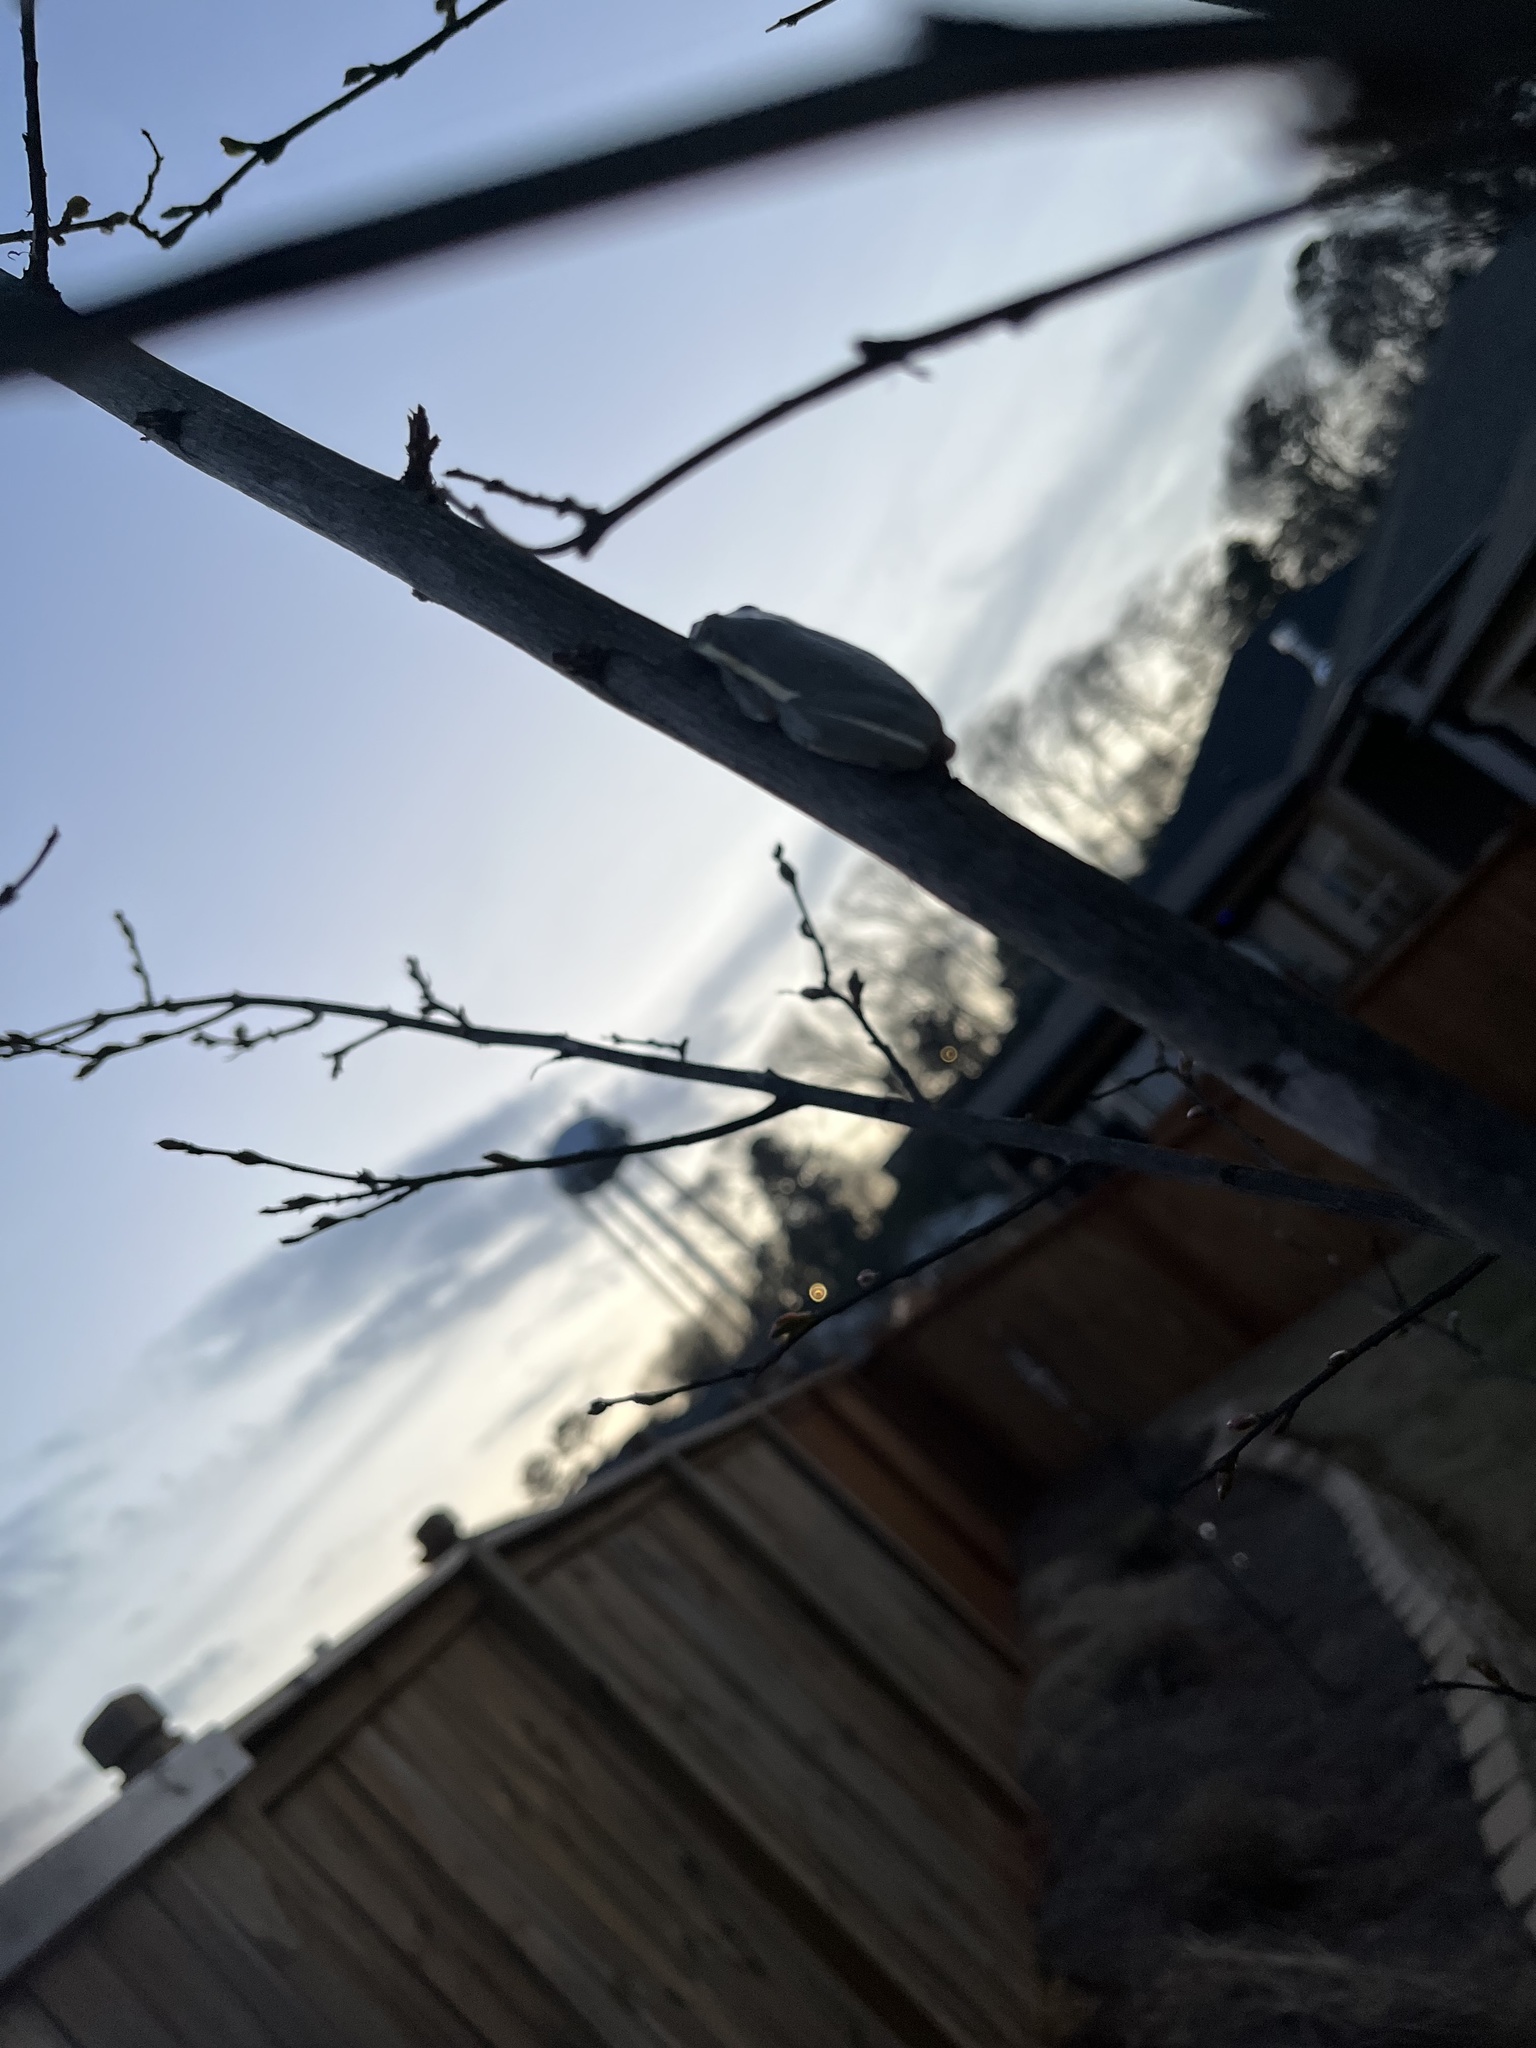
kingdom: Animalia
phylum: Chordata
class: Amphibia
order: Anura
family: Hylidae
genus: Dryophytes
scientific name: Dryophytes cinereus
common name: Green treefrog
